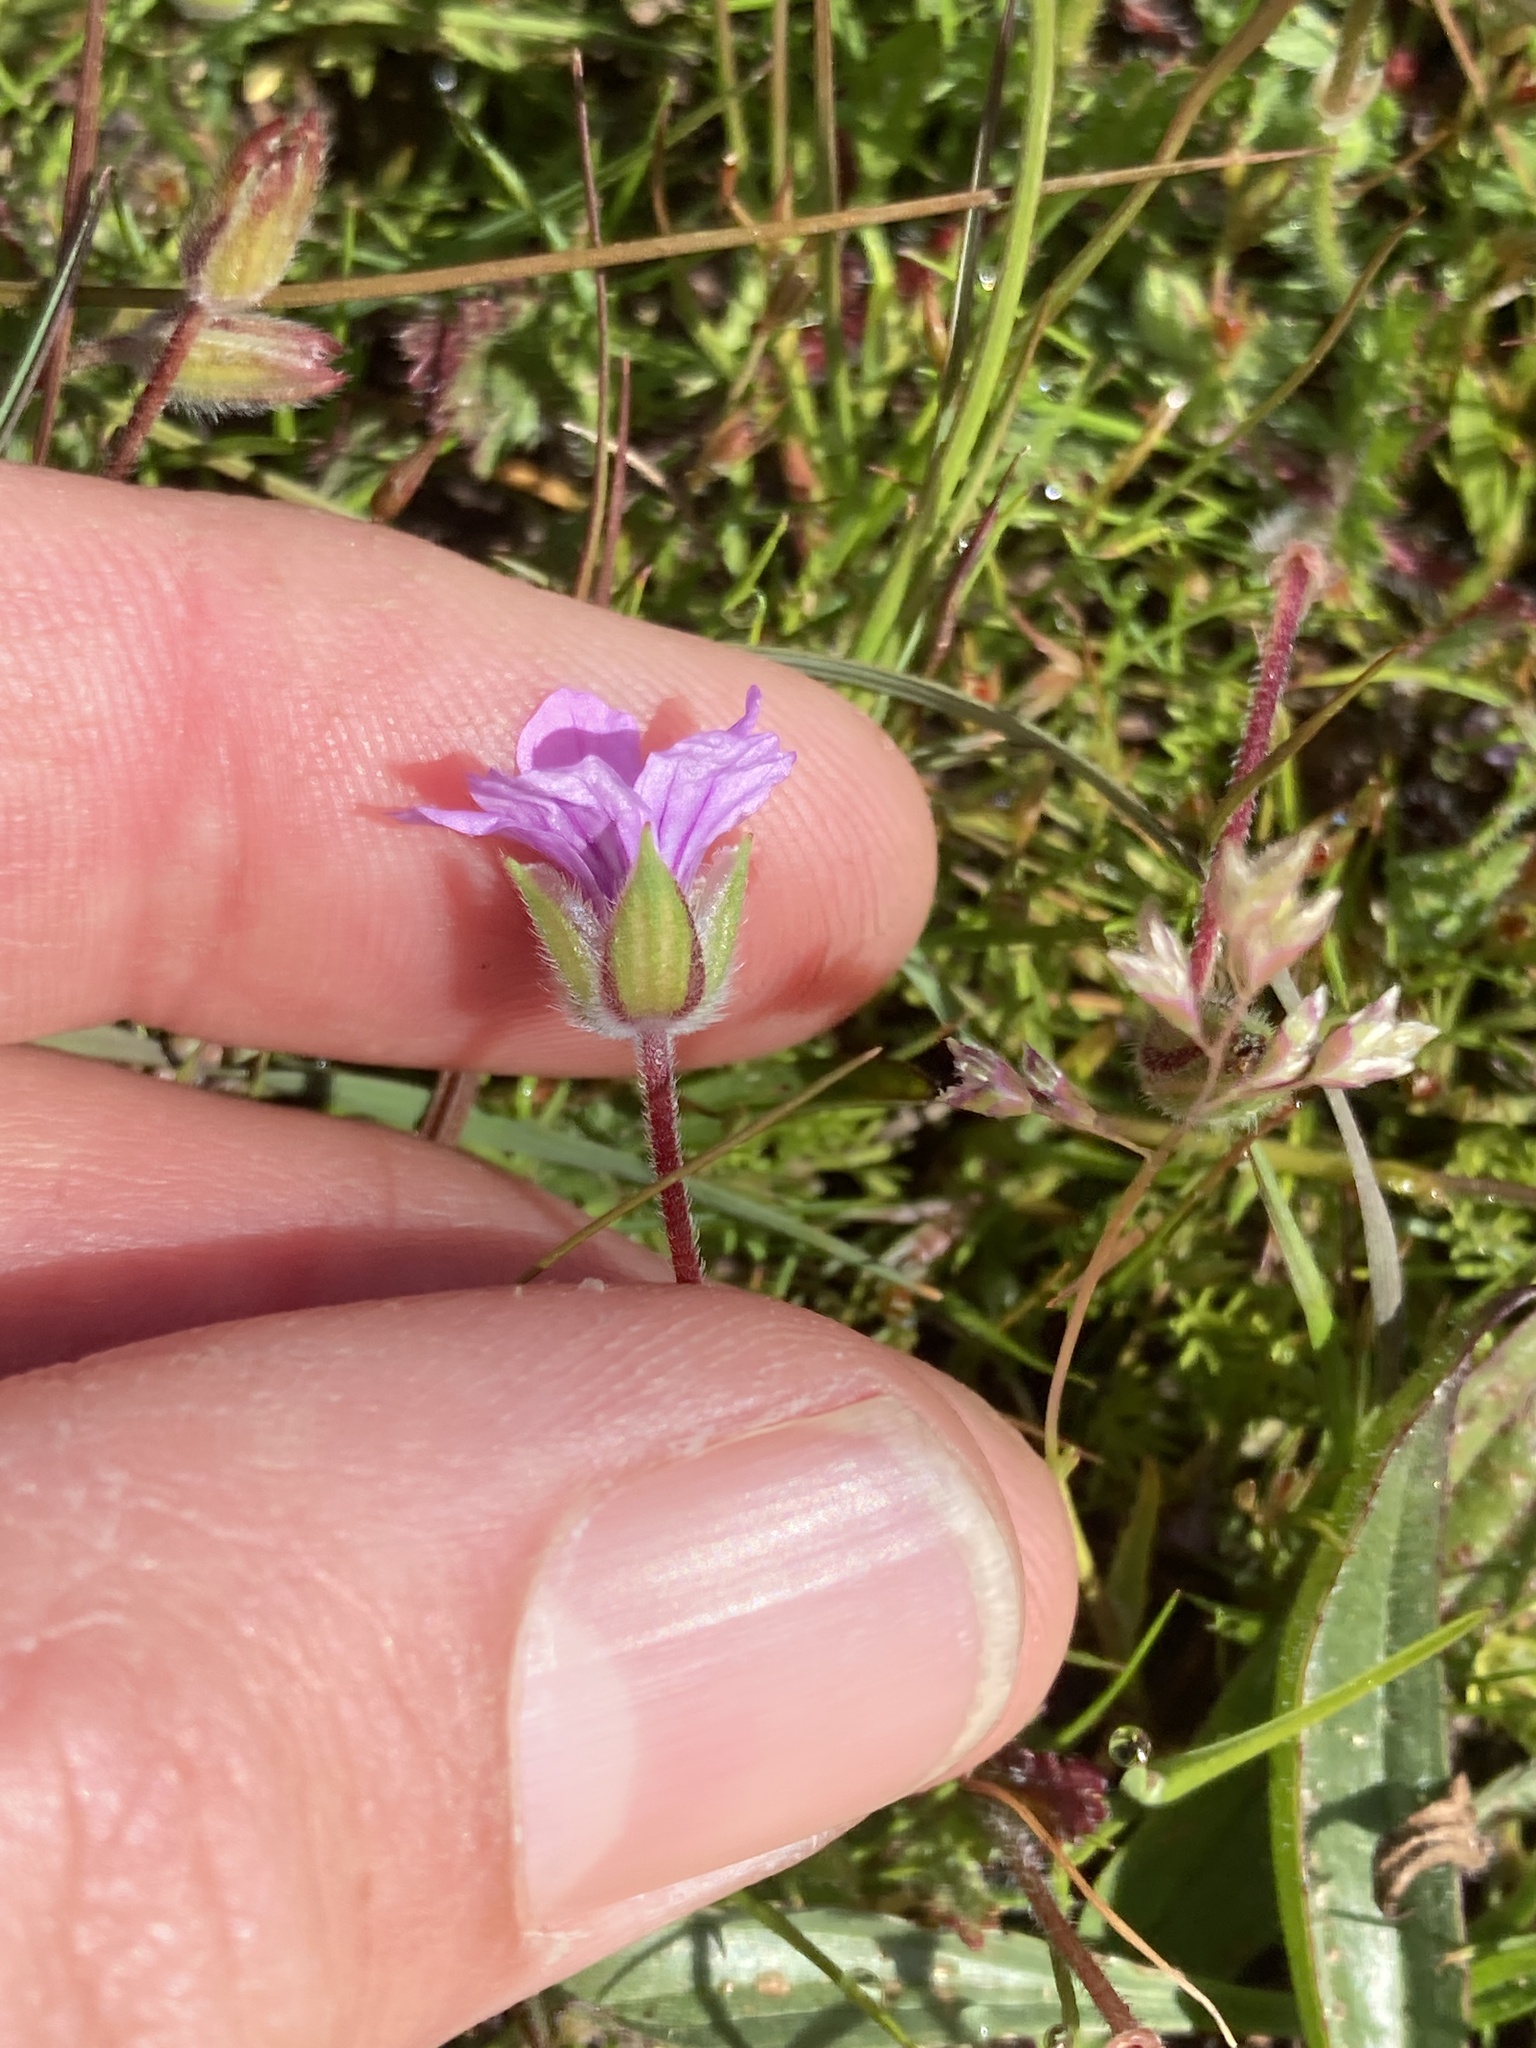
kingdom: Plantae
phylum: Tracheophyta
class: Magnoliopsida
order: Geraniales
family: Geraniaceae
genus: Erodium
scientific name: Erodium botrys
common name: Mediterranean stork's-bill
